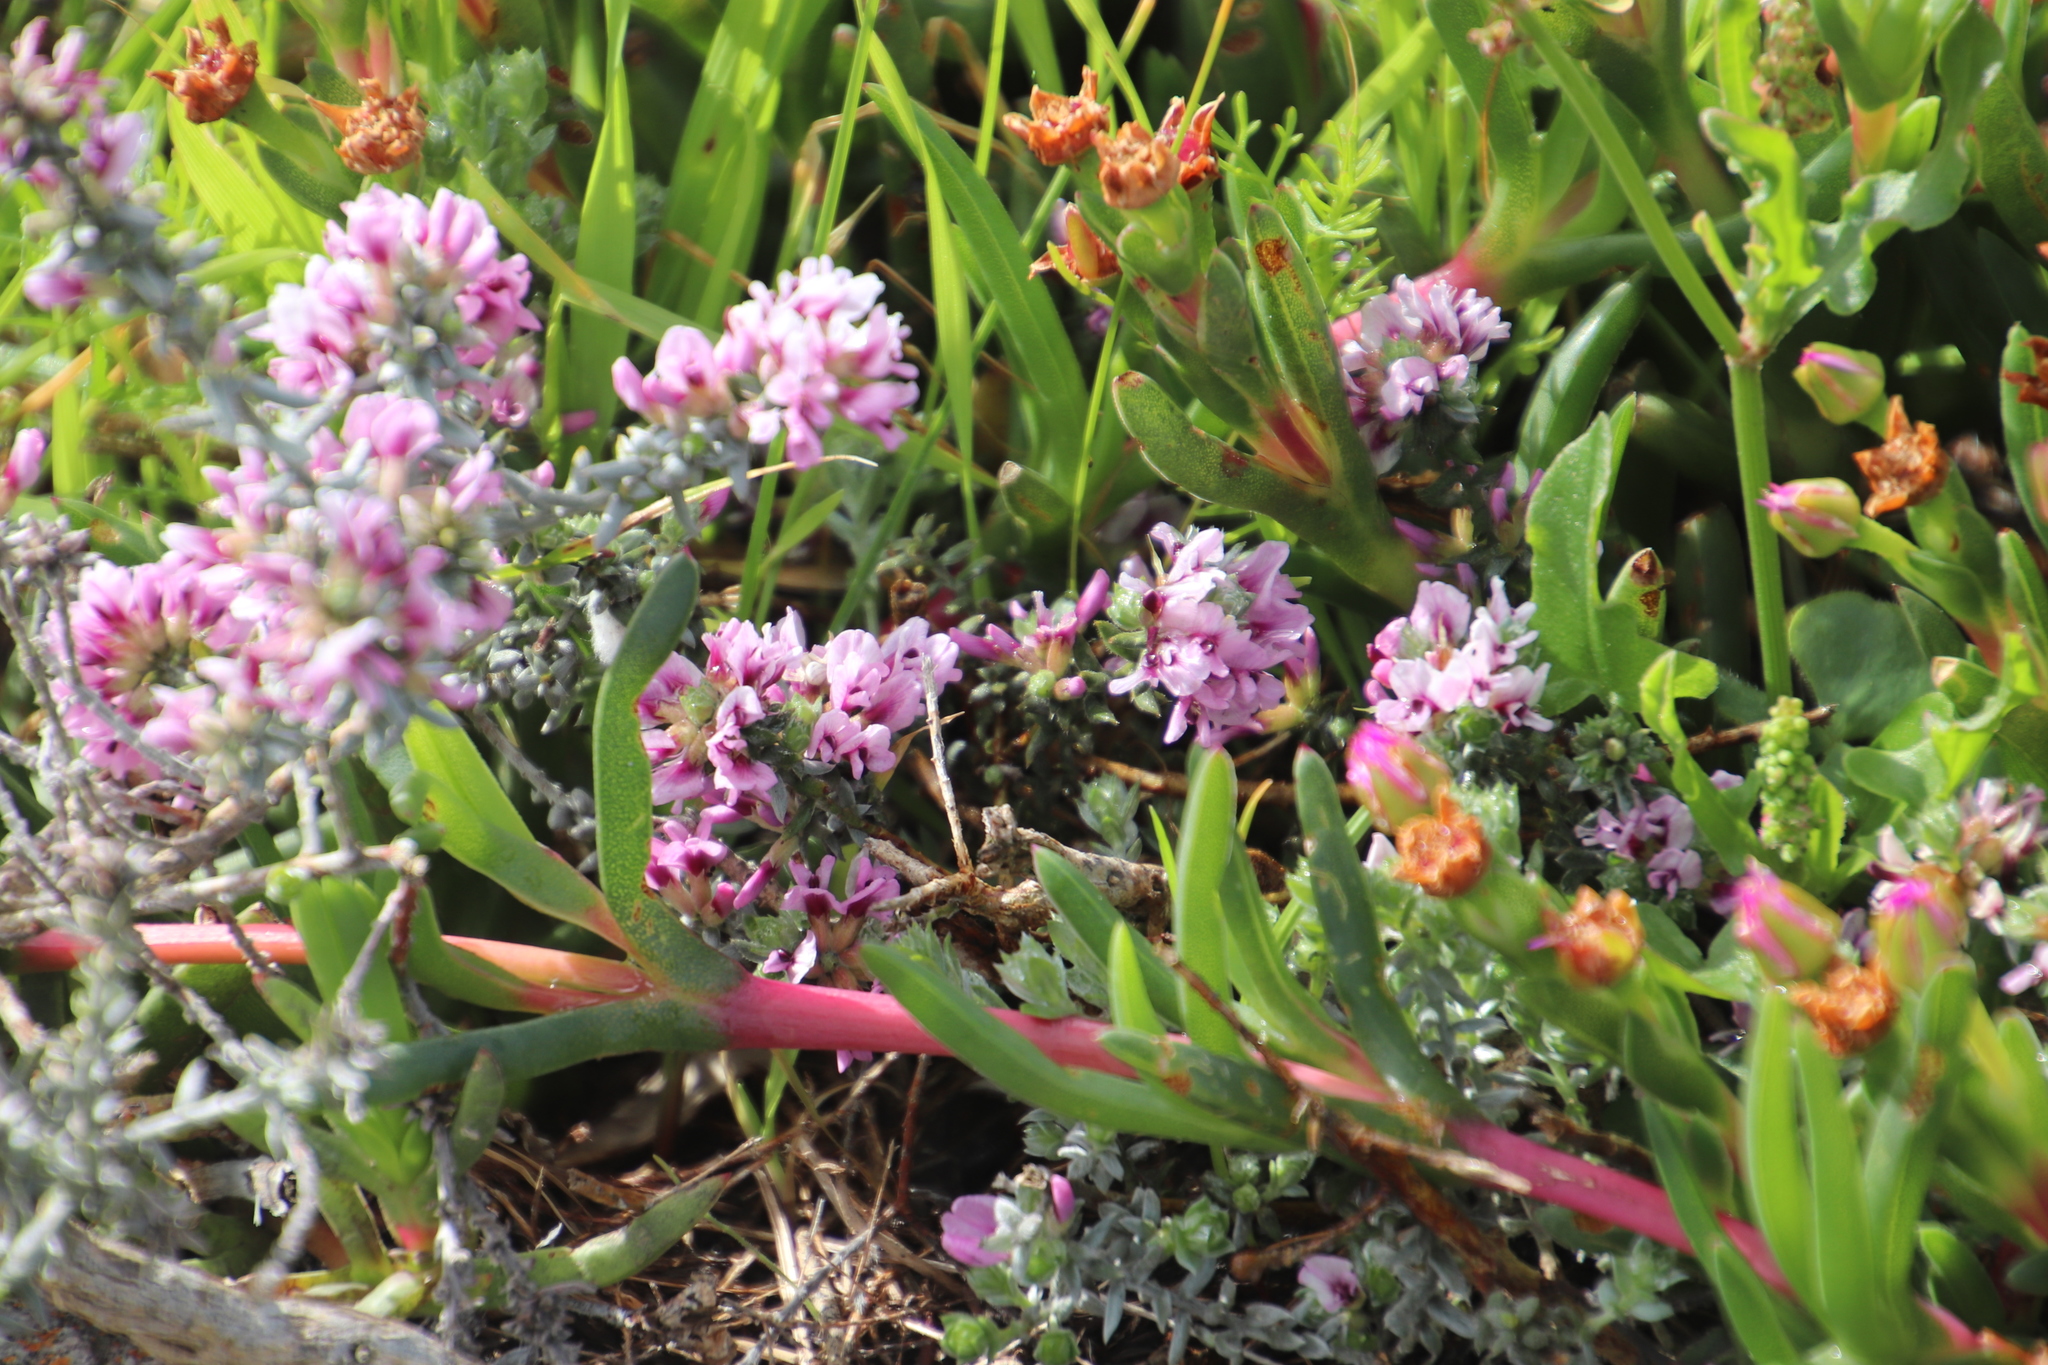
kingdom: Plantae
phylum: Tracheophyta
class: Magnoliopsida
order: Fabales
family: Fabaceae
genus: Amphithalea
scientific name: Amphithalea ericifolia
